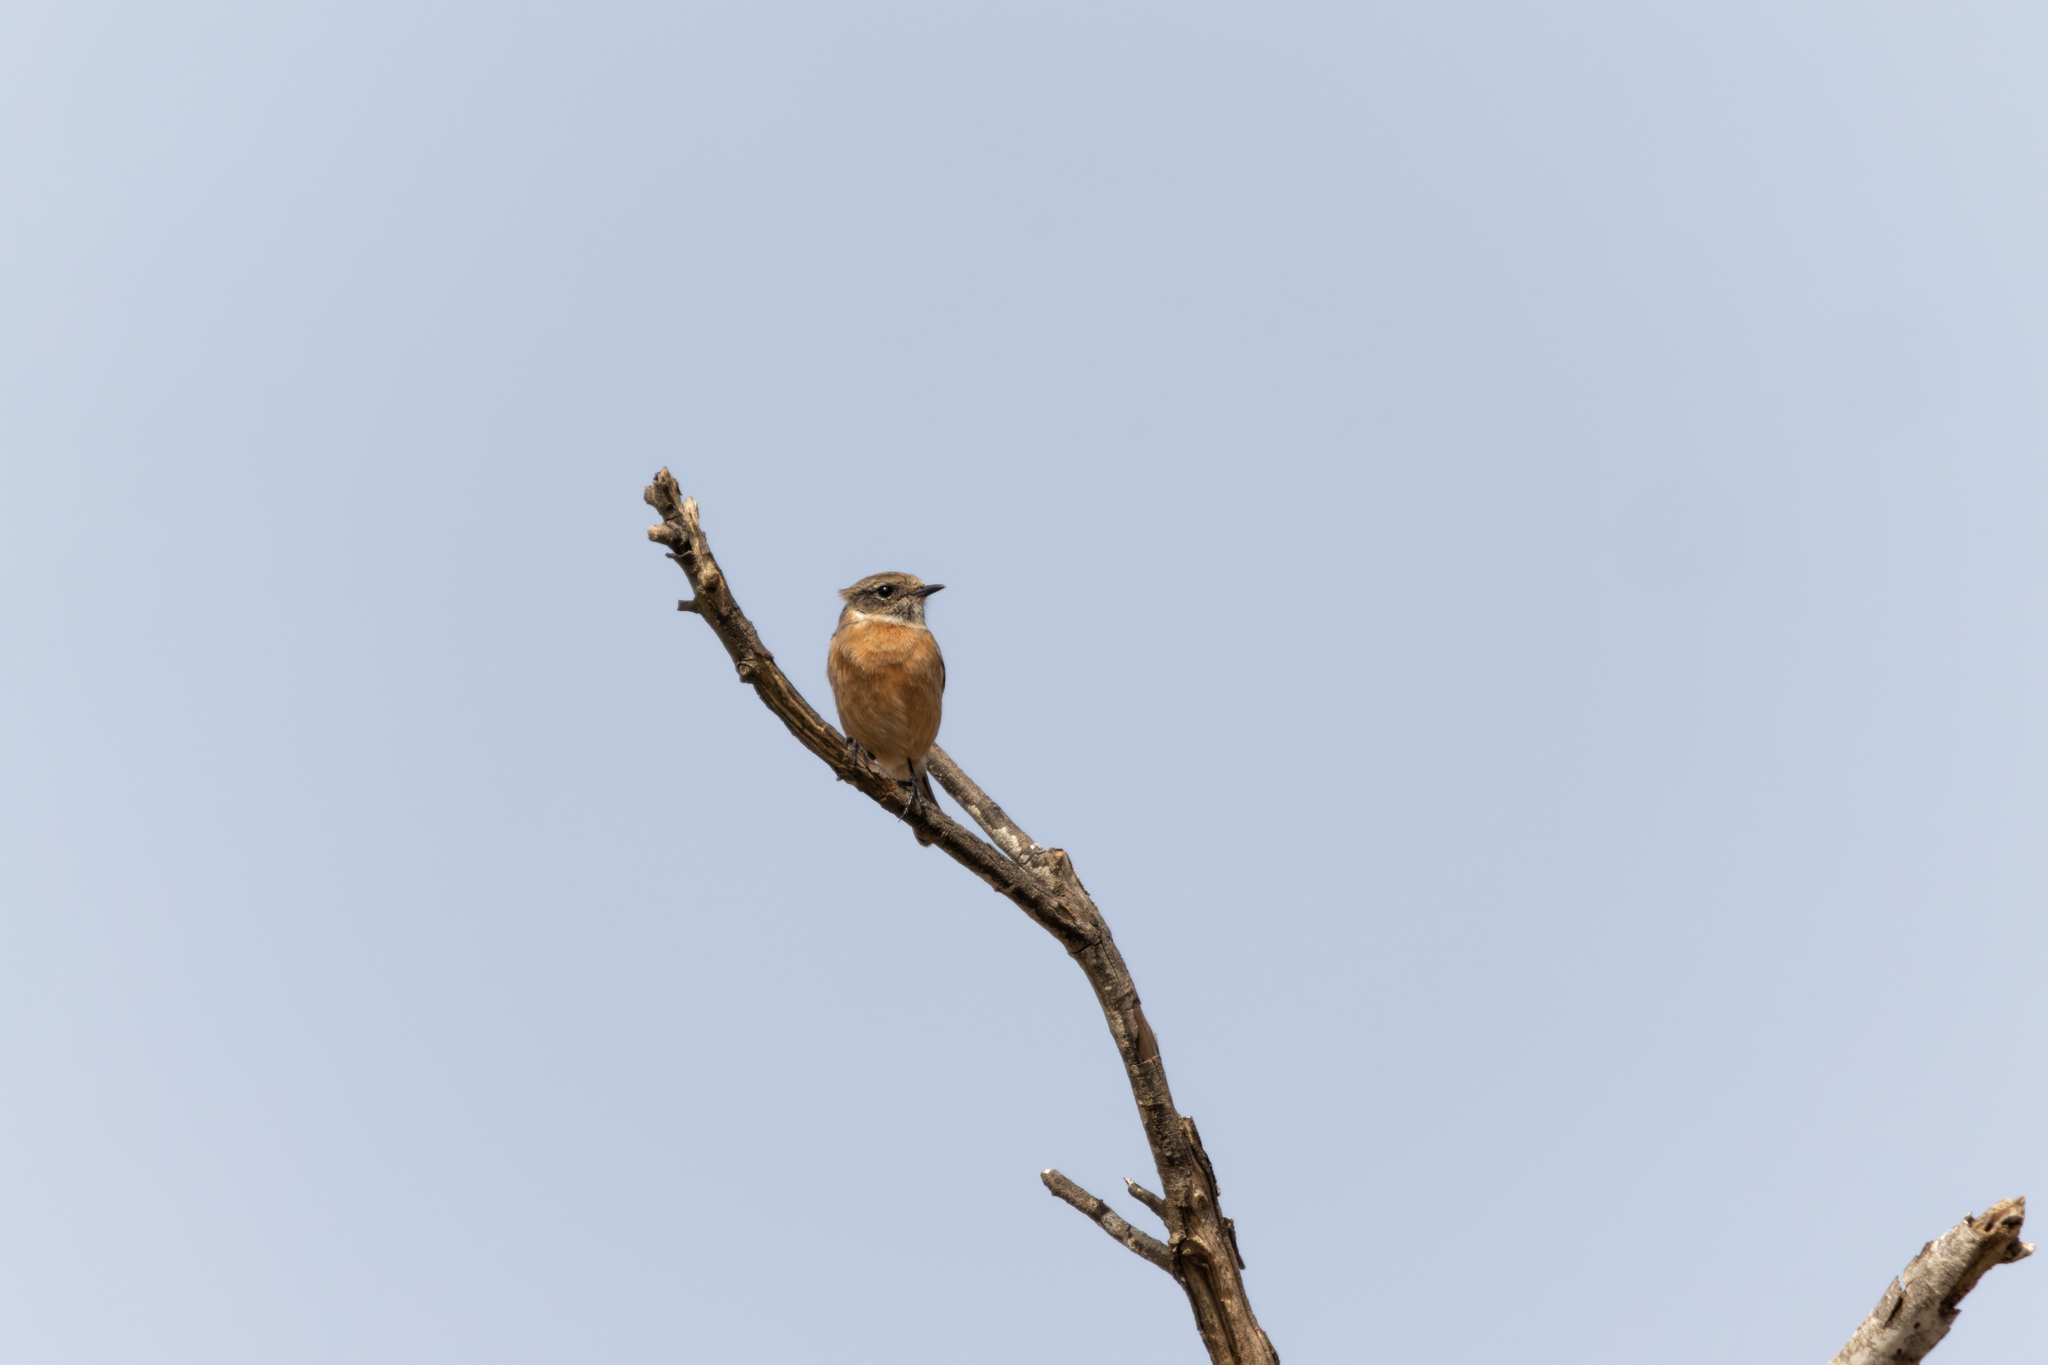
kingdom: Animalia
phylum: Chordata
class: Aves
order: Passeriformes
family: Muscicapidae
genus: Saxicola
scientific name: Saxicola rubicola
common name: European stonechat
